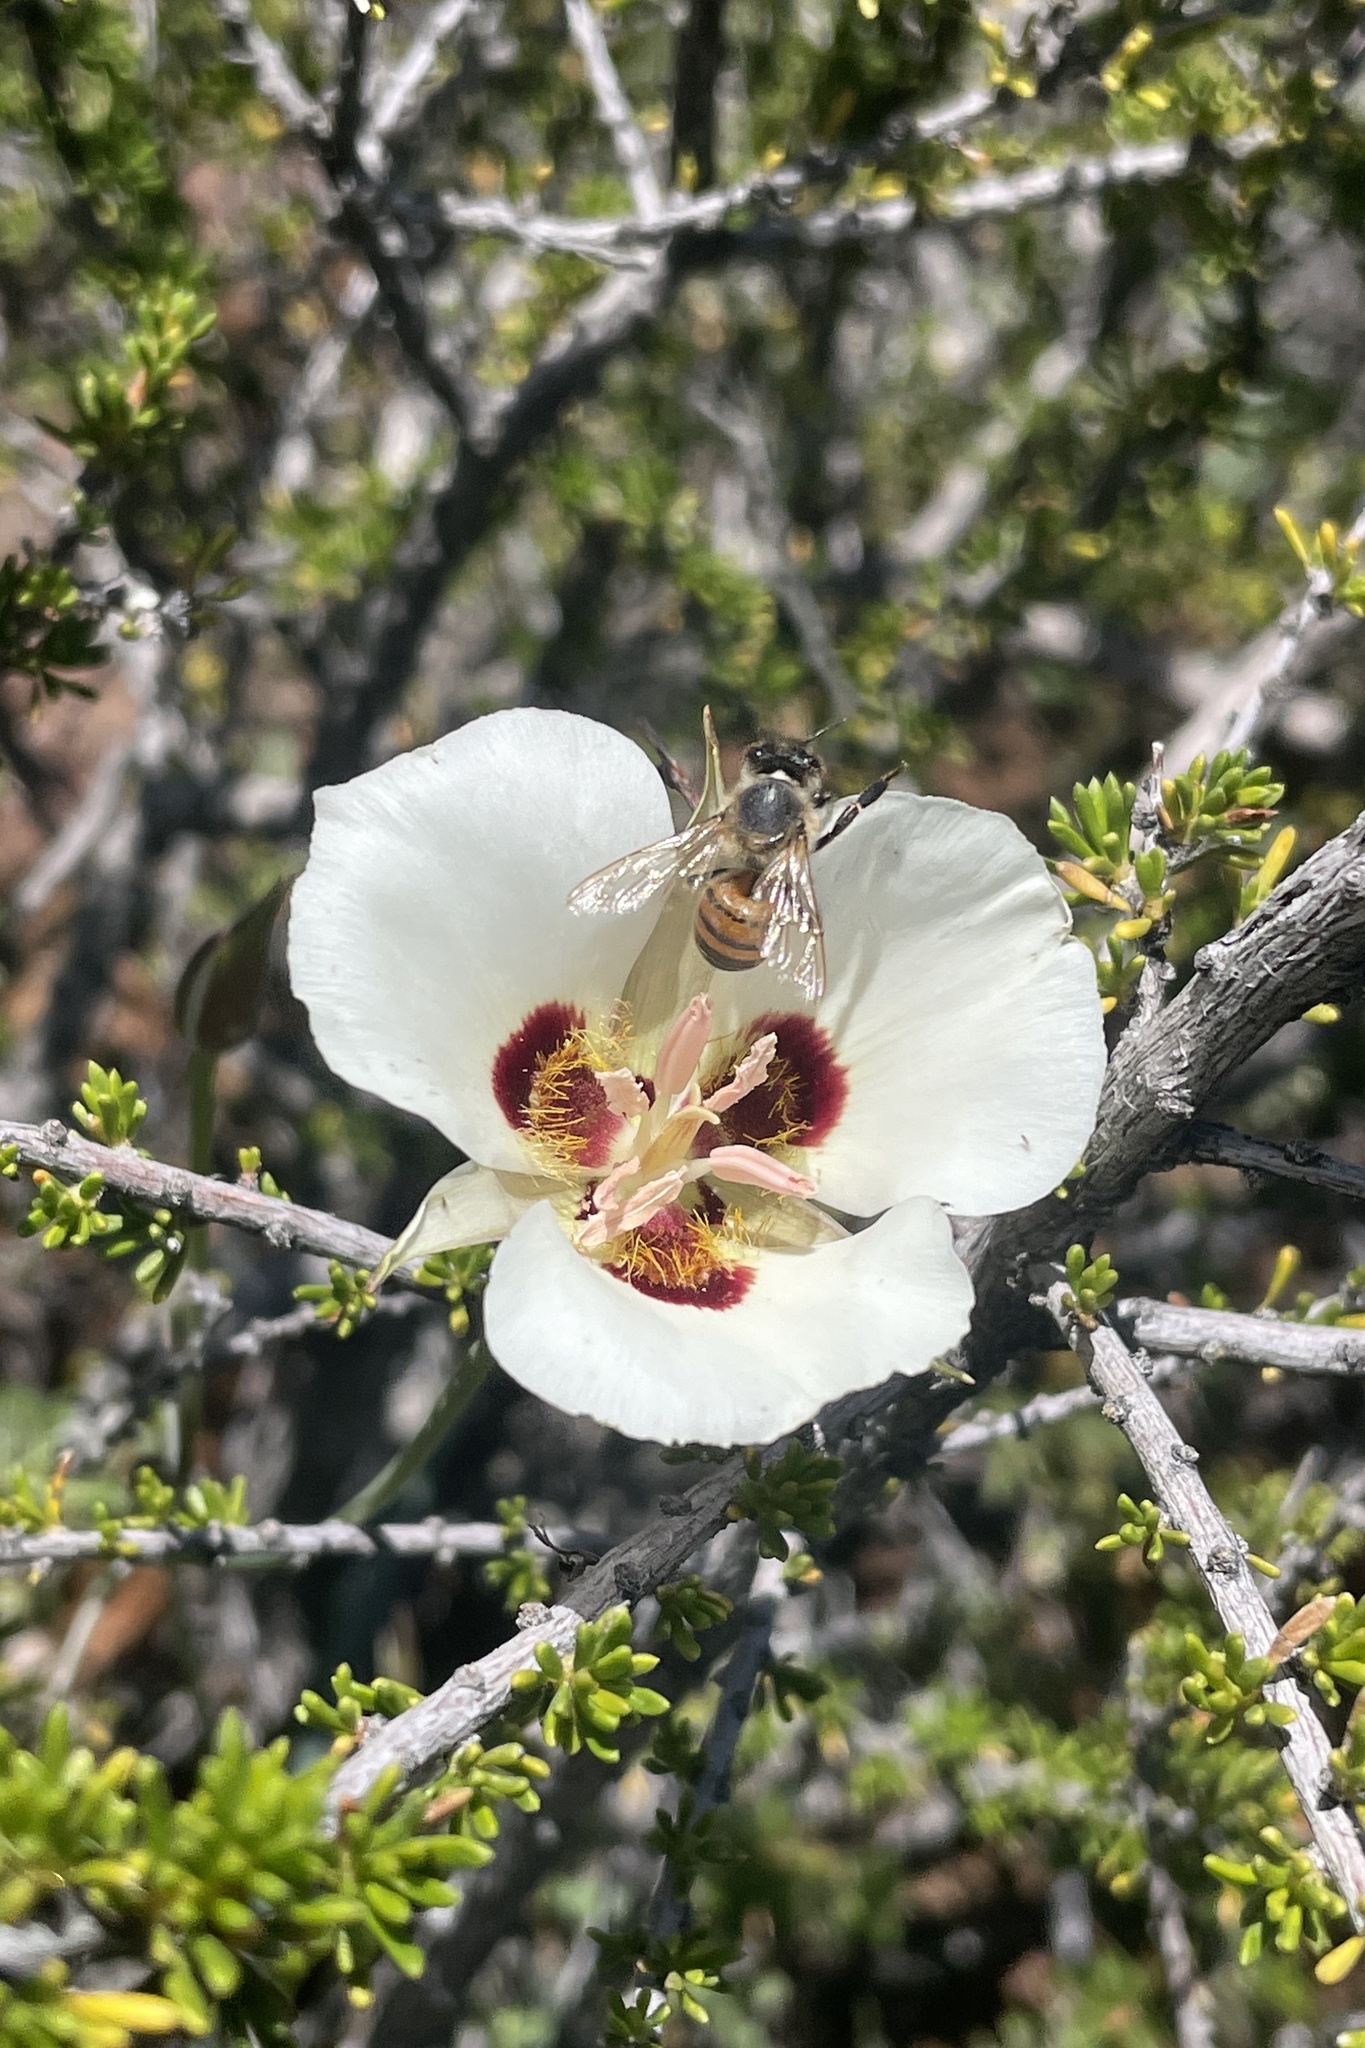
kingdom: Plantae
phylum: Tracheophyta
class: Liliopsida
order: Liliales
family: Liliaceae
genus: Calochortus
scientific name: Calochortus dunnii
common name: Dunn's mariposa-lily
